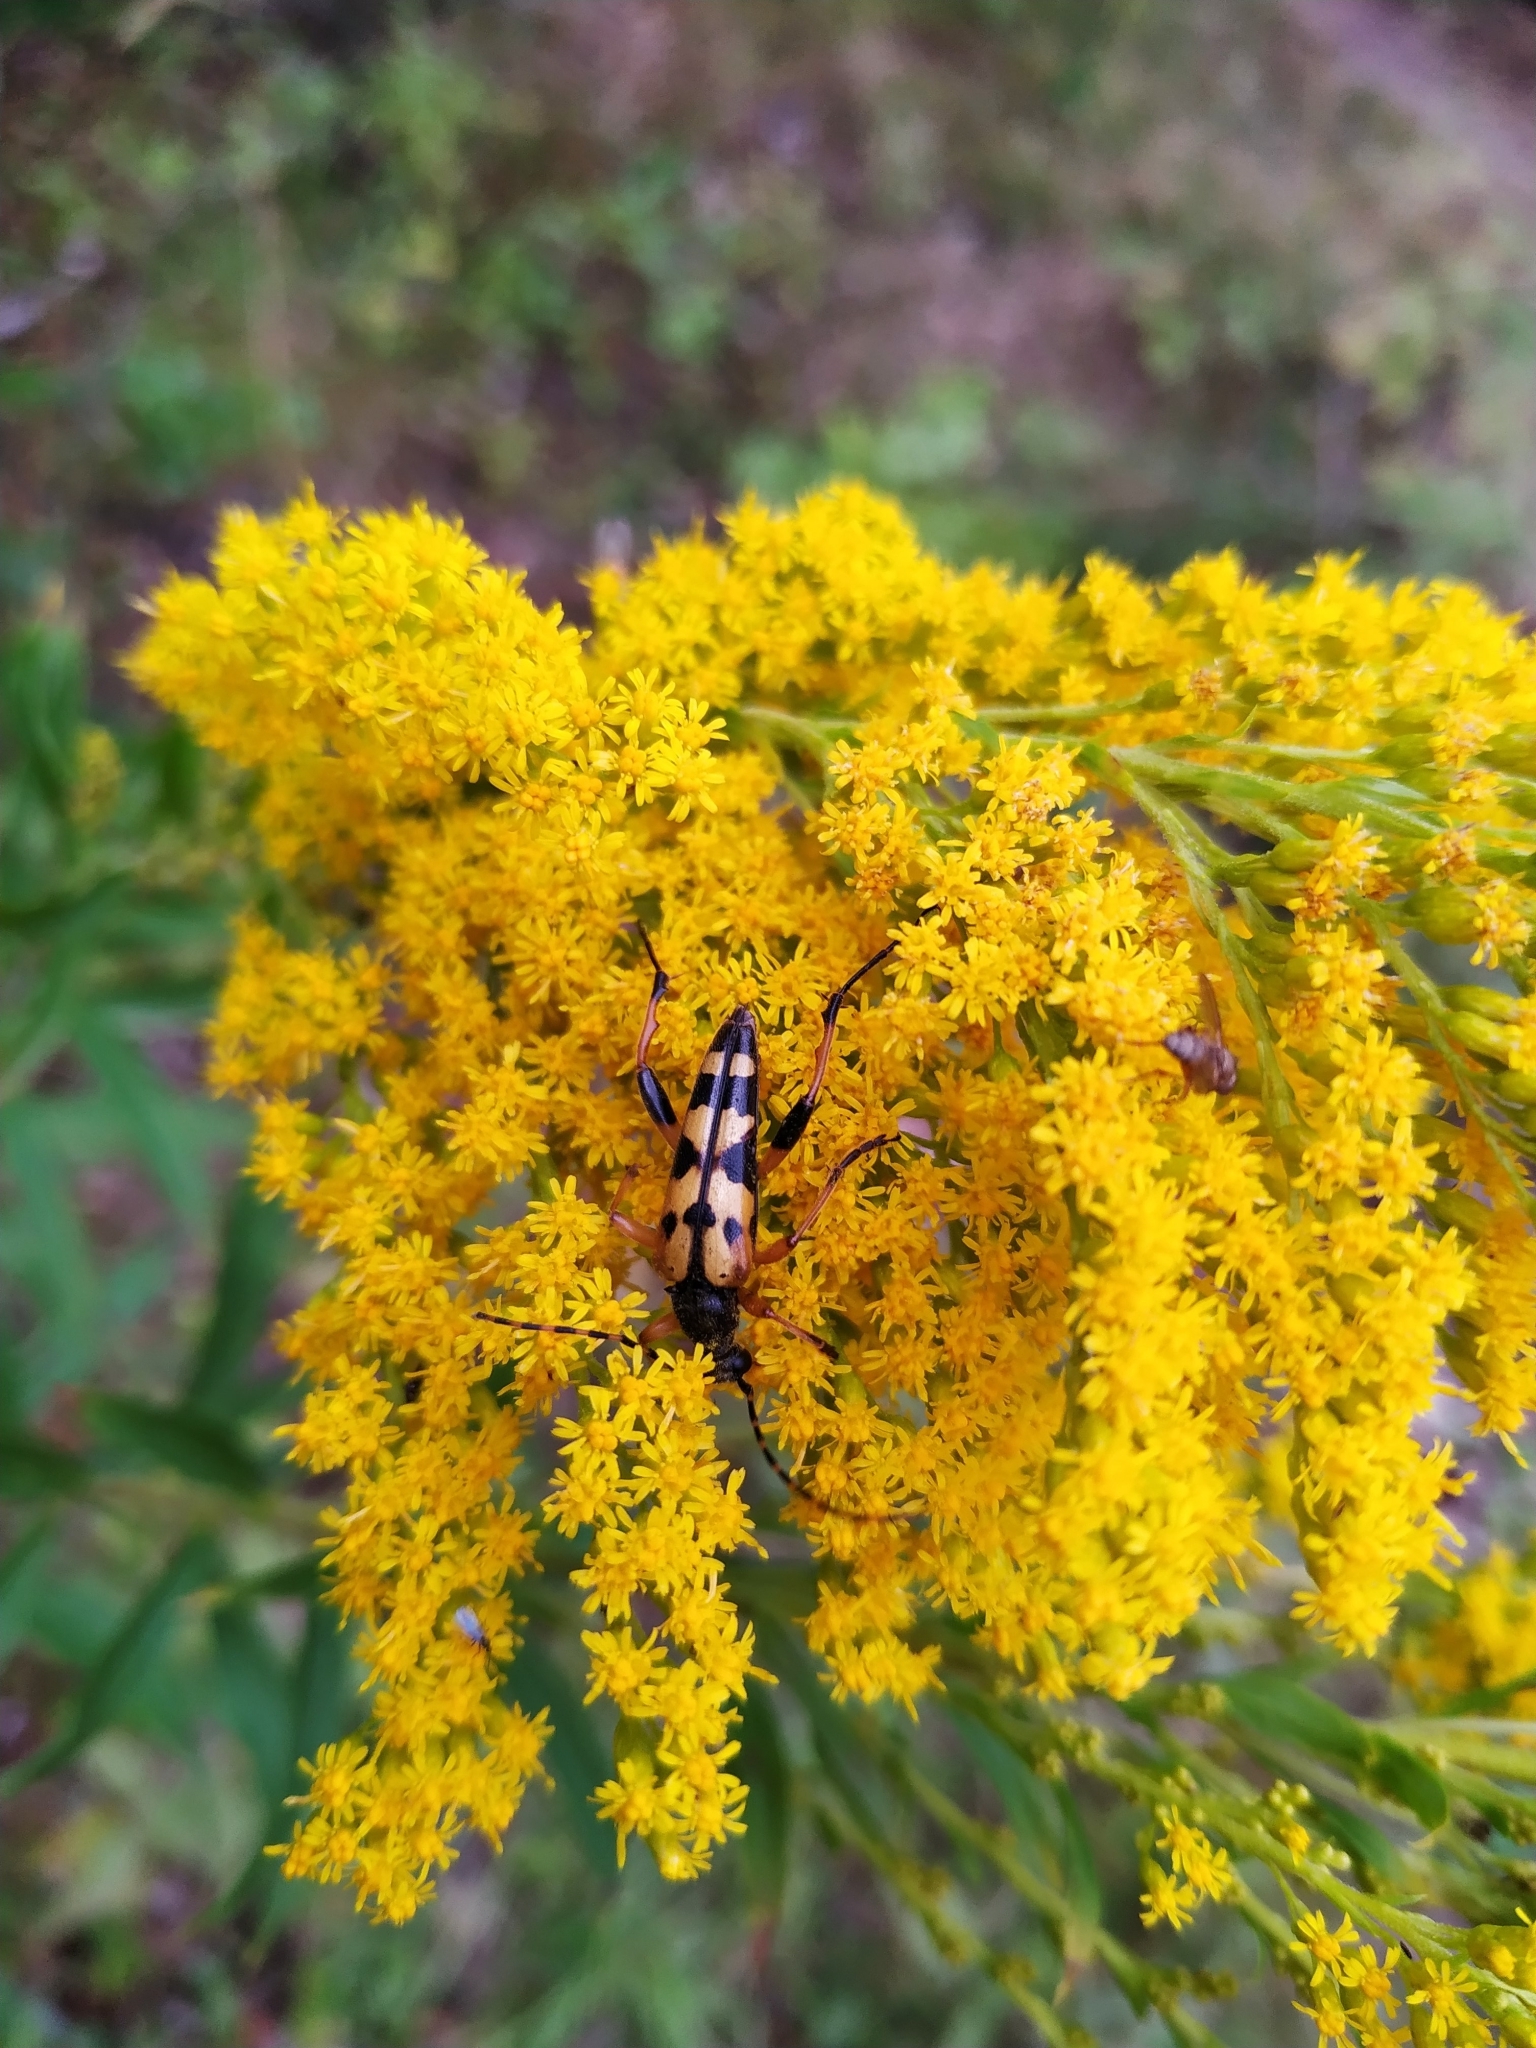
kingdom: Animalia
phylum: Arthropoda
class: Insecta
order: Coleoptera
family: Cerambycidae
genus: Rutpela
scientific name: Rutpela maculata
